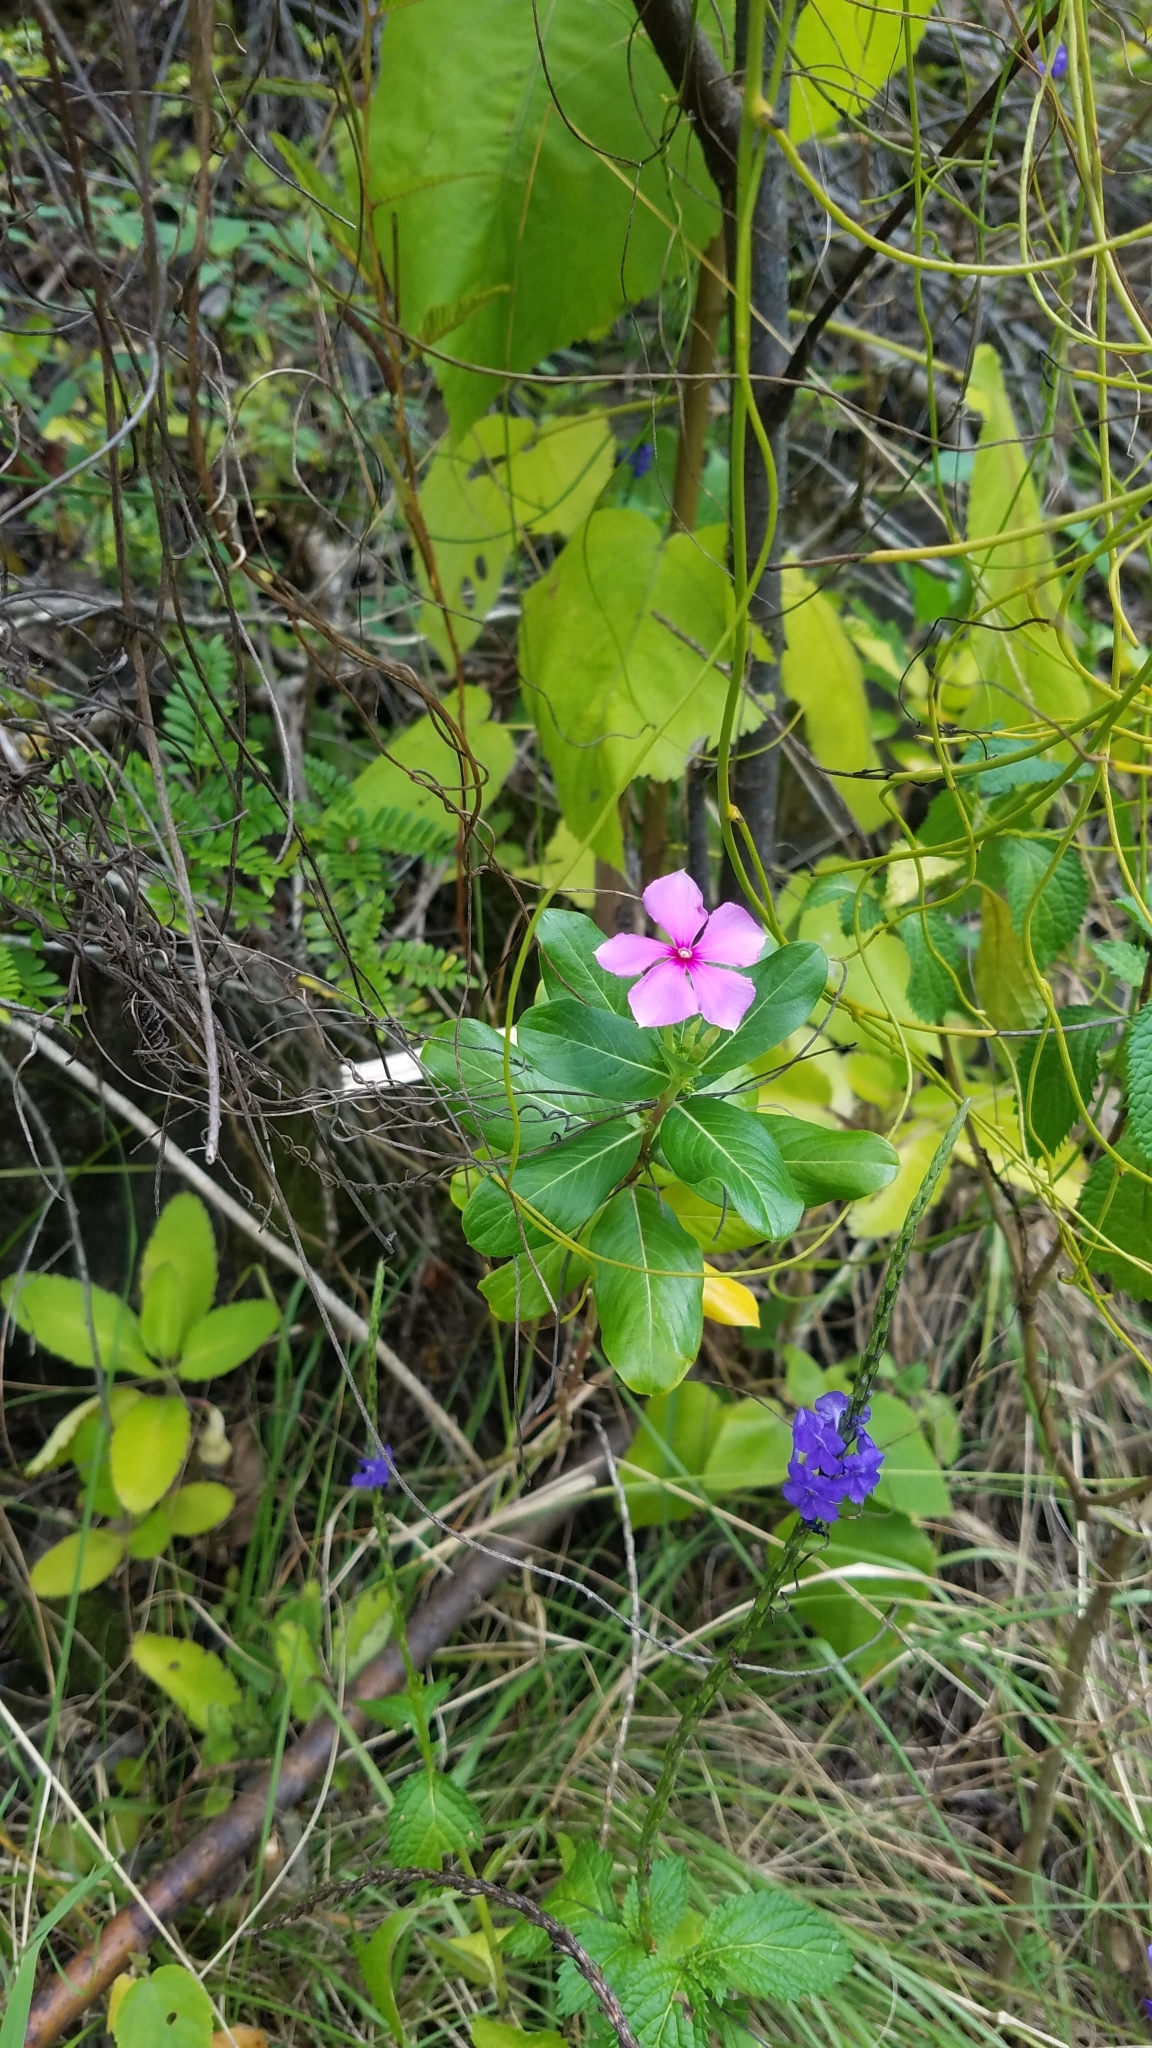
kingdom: Plantae
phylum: Tracheophyta
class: Magnoliopsida
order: Gentianales
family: Apocynaceae
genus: Catharanthus
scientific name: Catharanthus roseus
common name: Madagascar periwinkle
